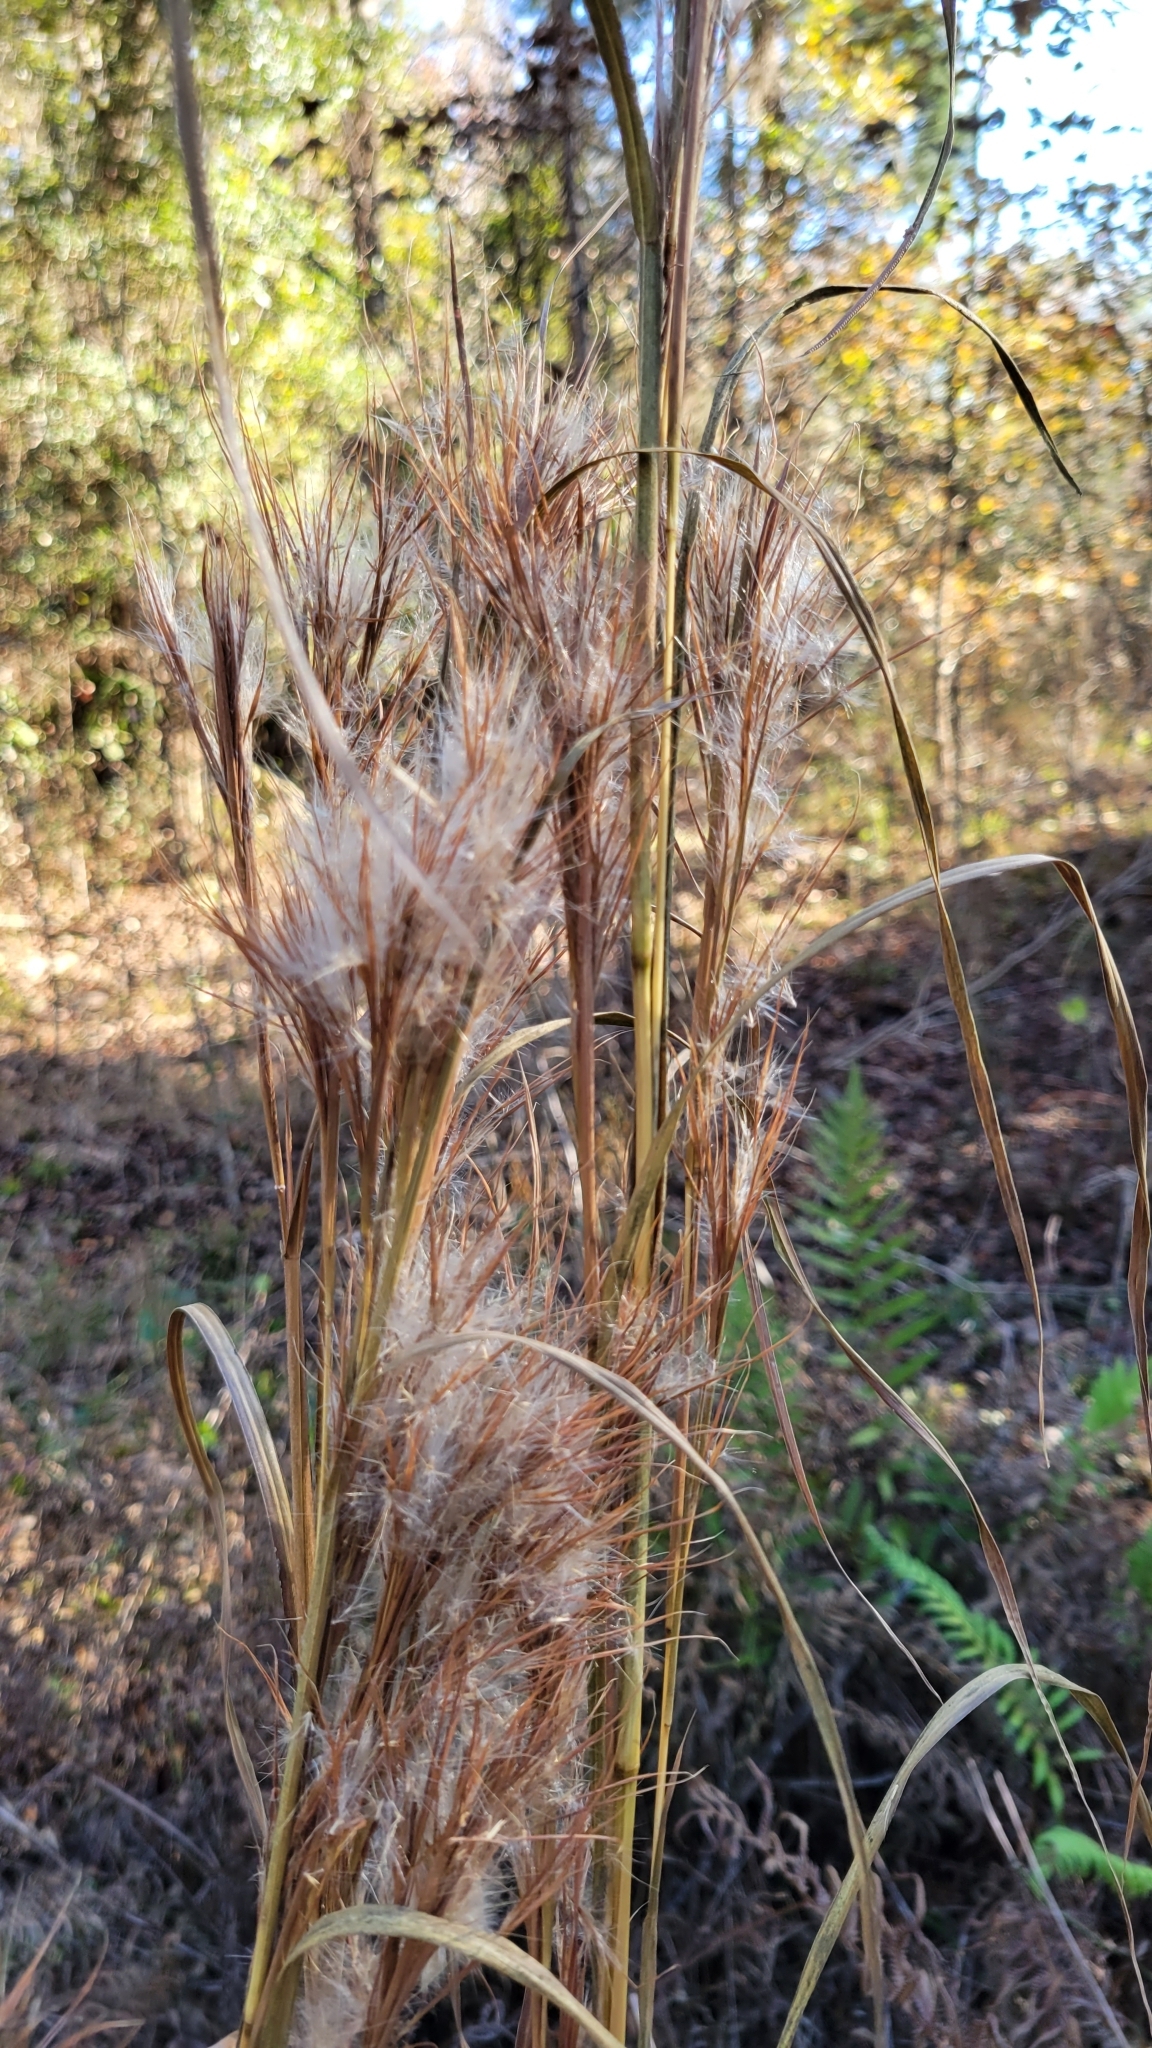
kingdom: Plantae
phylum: Tracheophyta
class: Liliopsida
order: Poales
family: Poaceae
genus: Andropogon
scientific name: Andropogon glomeratus
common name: Bushy beard grass
